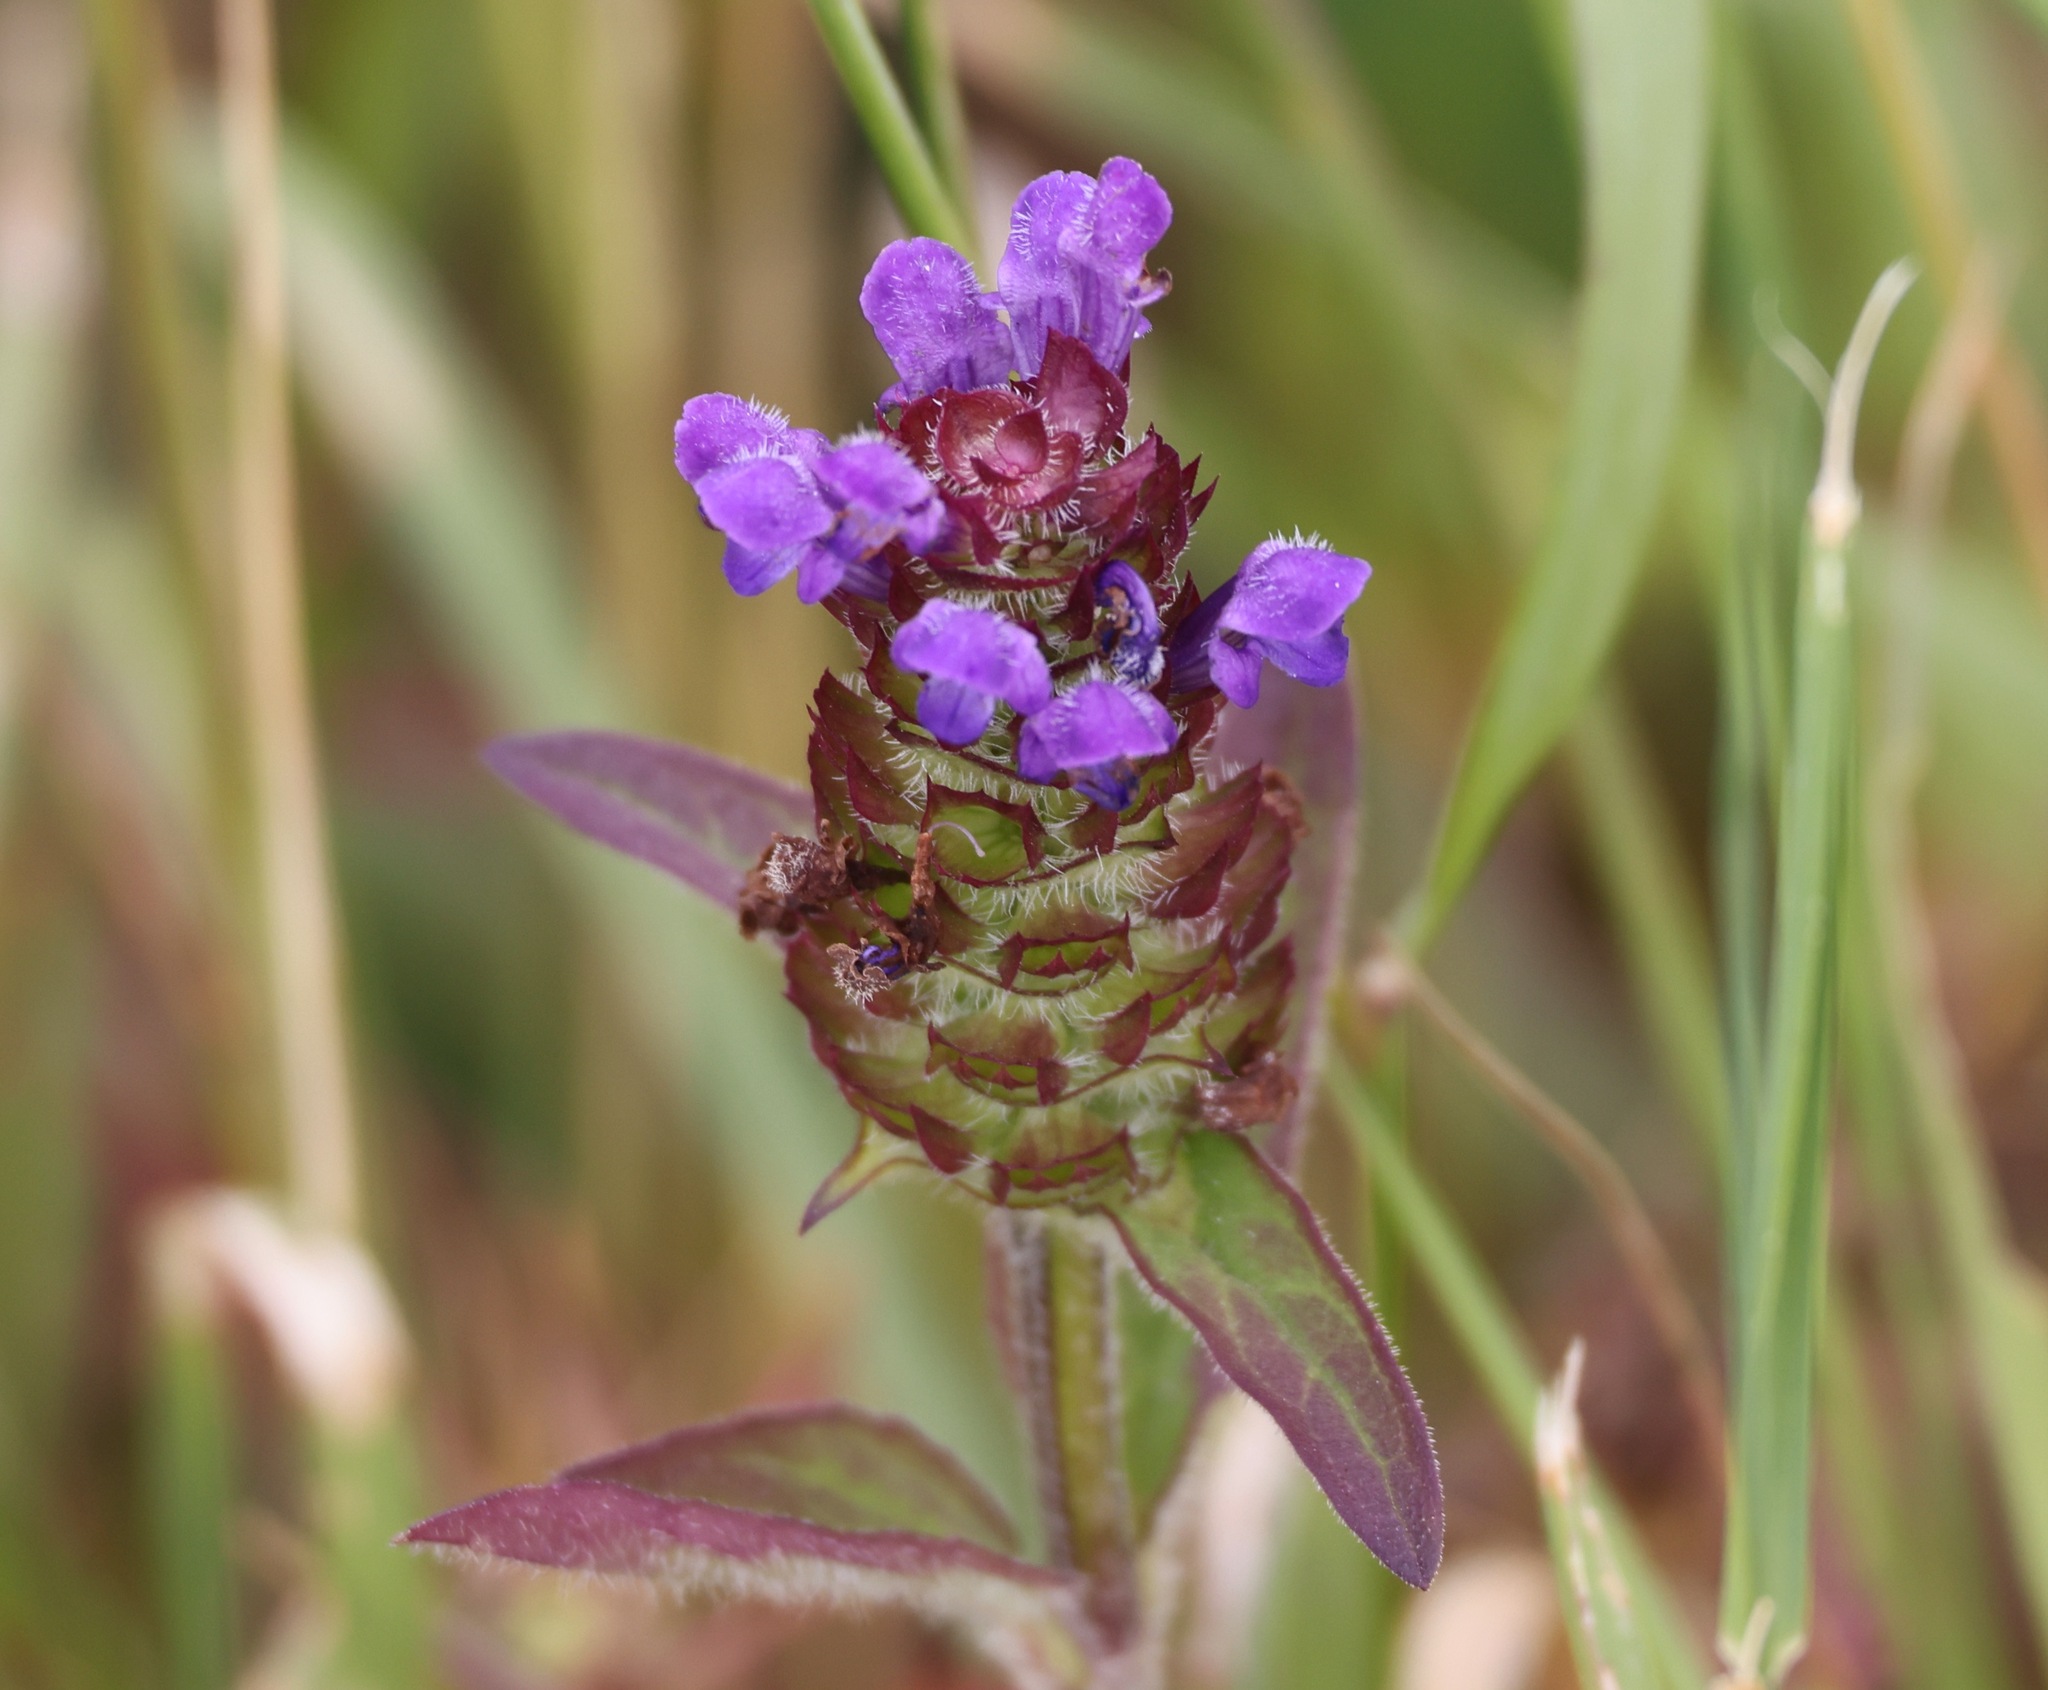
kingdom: Plantae
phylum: Tracheophyta
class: Magnoliopsida
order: Lamiales
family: Lamiaceae
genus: Prunella
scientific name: Prunella vulgaris
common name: Heal-all
